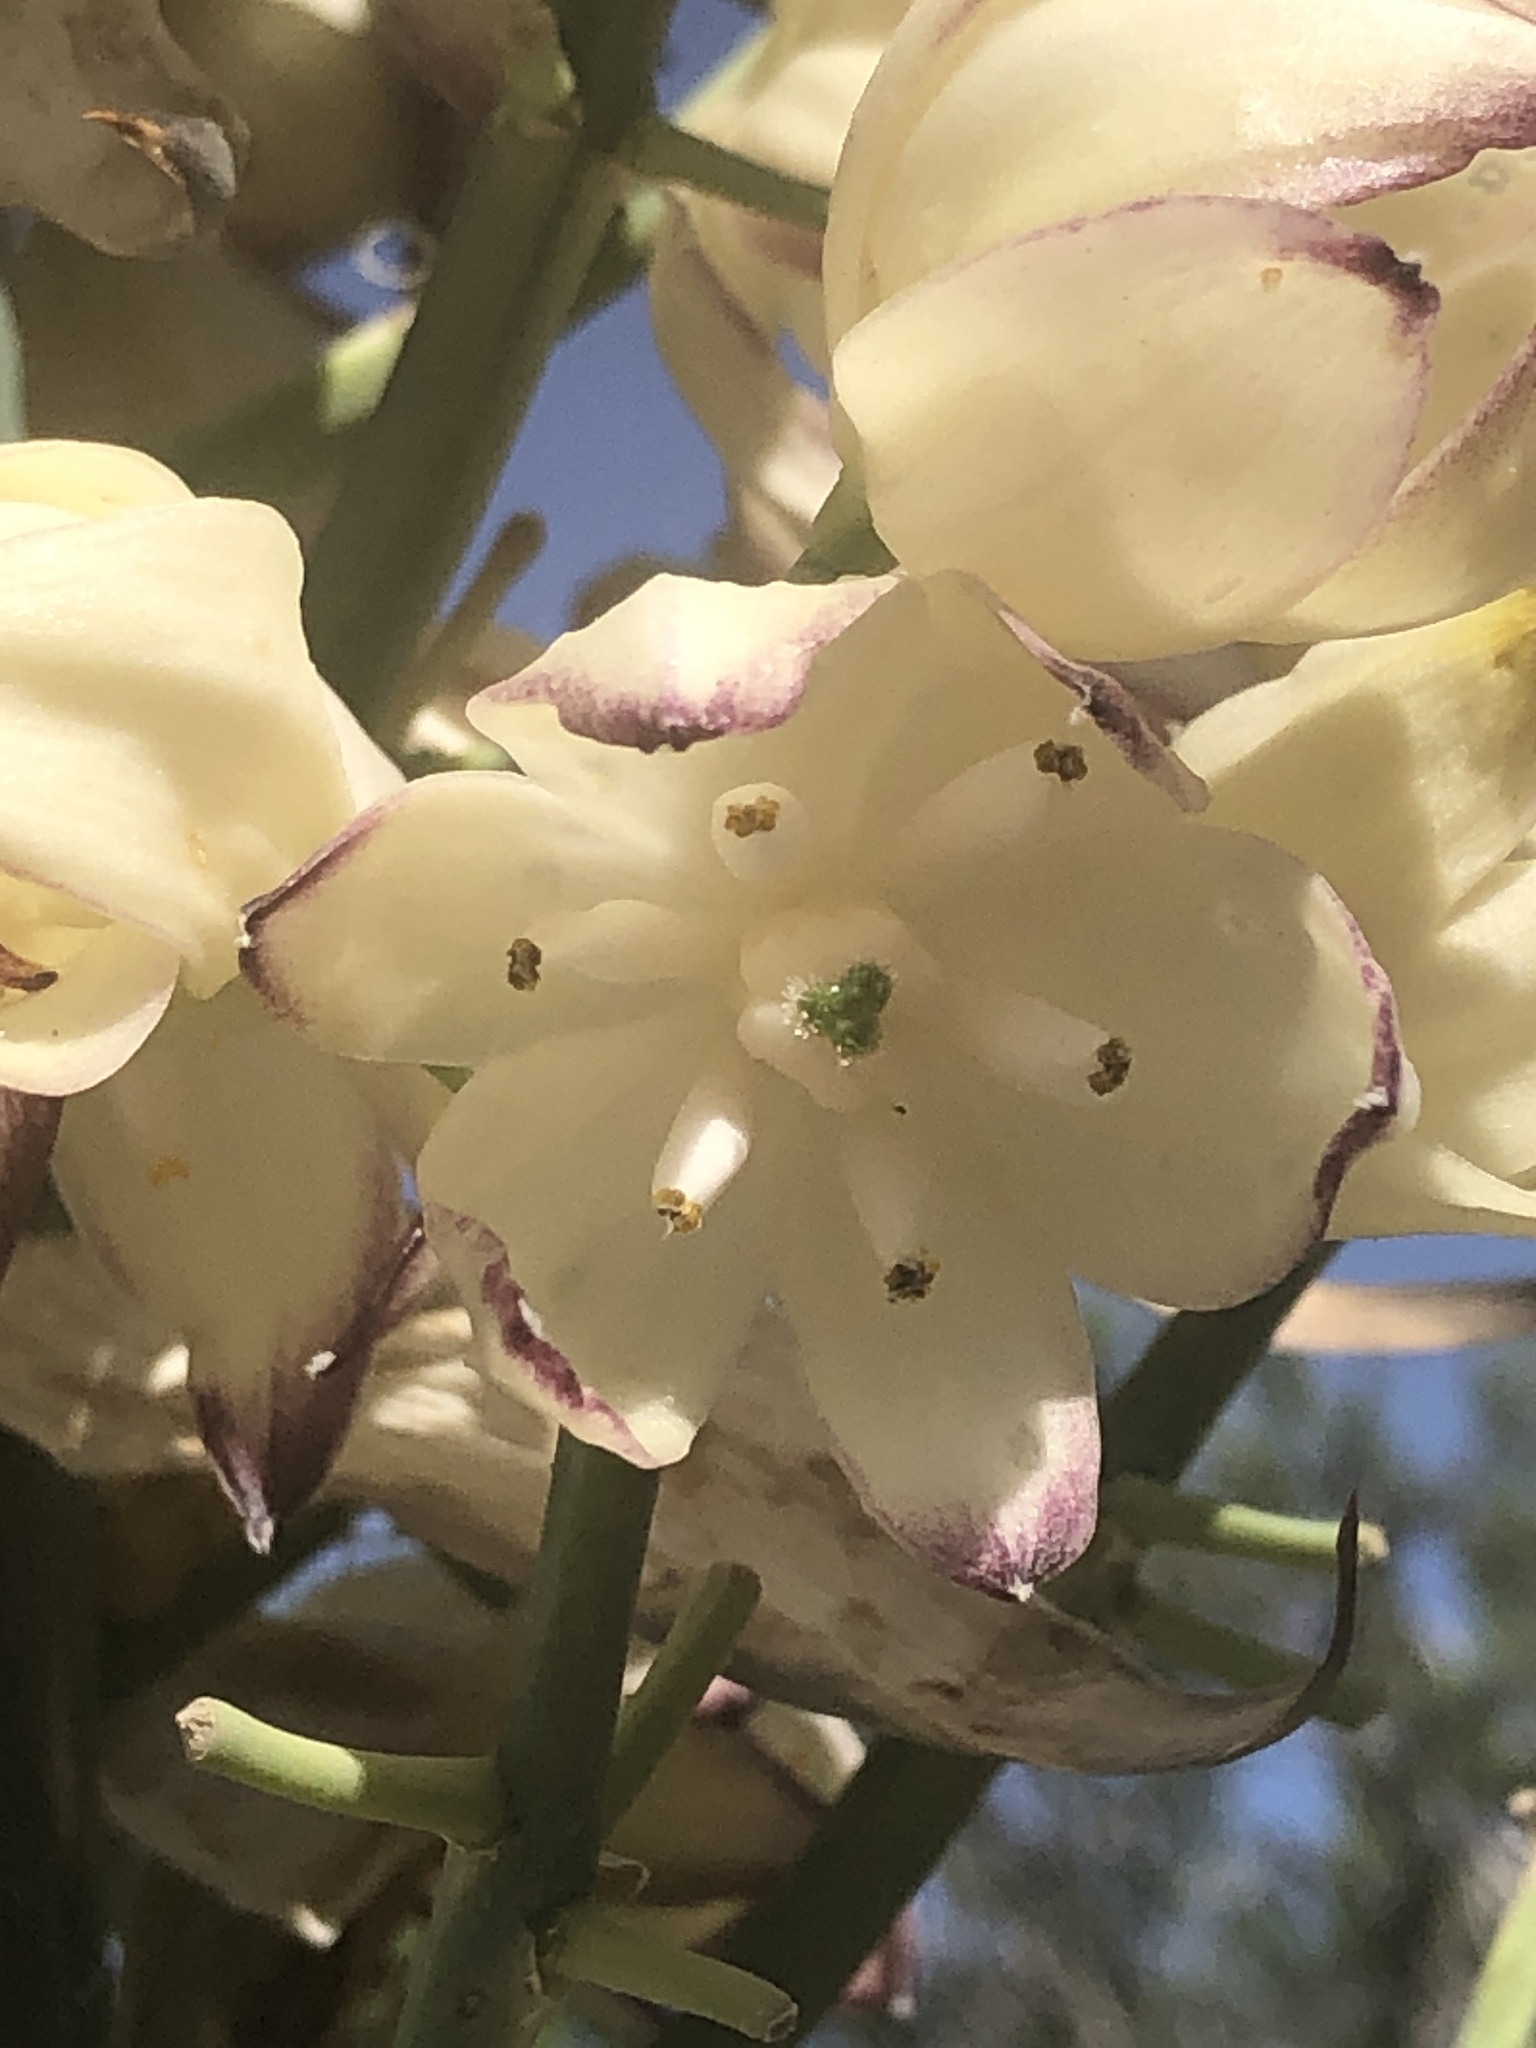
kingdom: Plantae
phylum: Tracheophyta
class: Liliopsida
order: Asparagales
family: Asparagaceae
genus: Hesperoyucca
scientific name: Hesperoyucca whipplei
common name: Our lord's-candle
